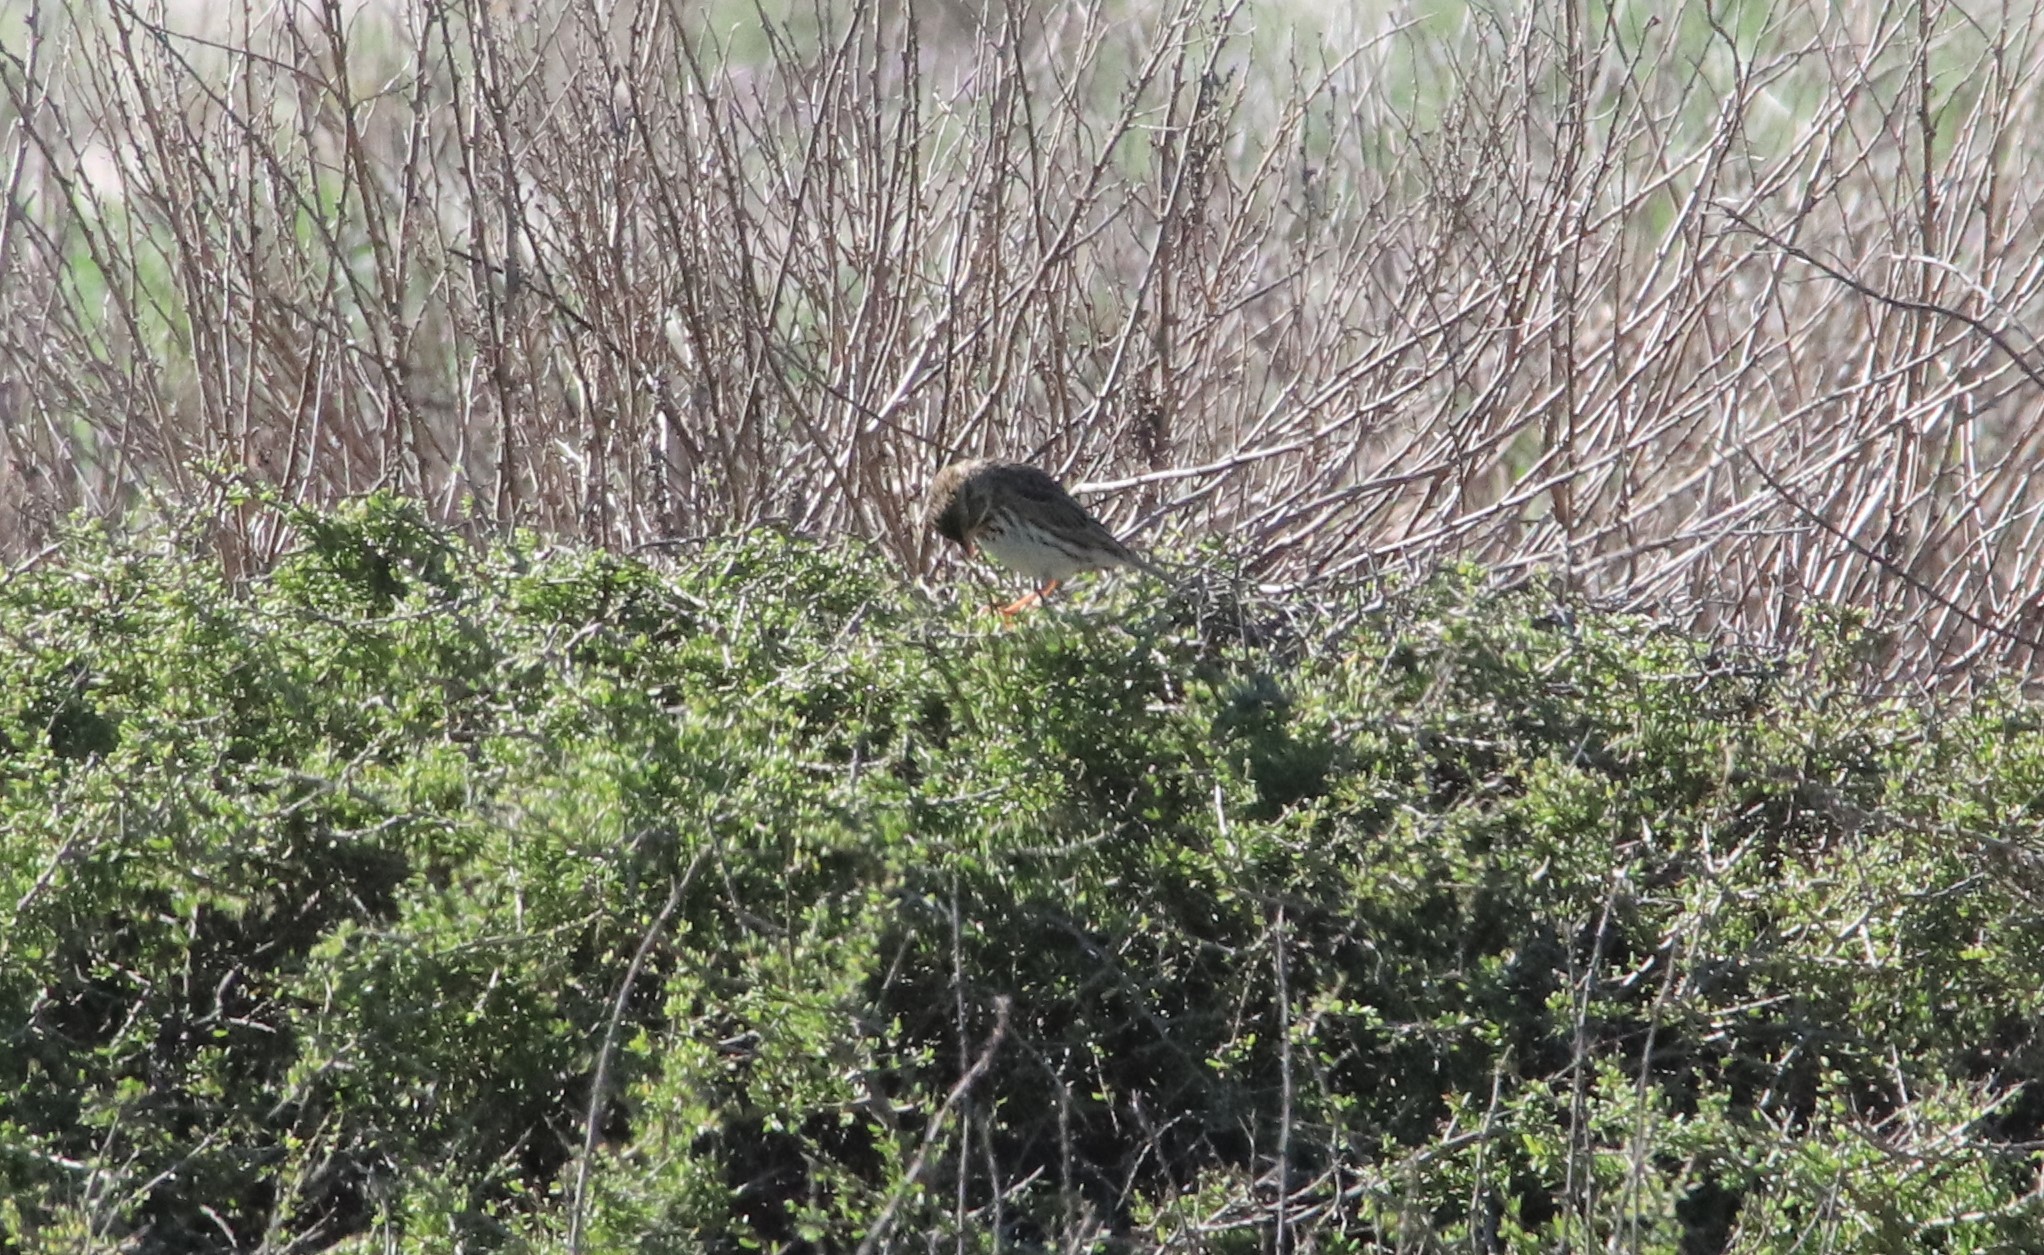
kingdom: Animalia
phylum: Chordata
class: Aves
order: Passeriformes
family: Passerellidae
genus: Passerculus
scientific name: Passerculus sandwichensis
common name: Savannah sparrow
